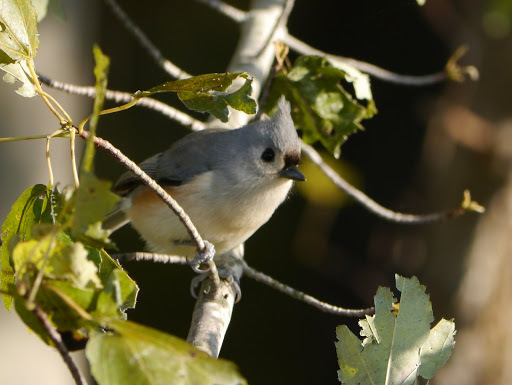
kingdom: Animalia
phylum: Chordata
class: Aves
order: Passeriformes
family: Paridae
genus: Baeolophus
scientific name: Baeolophus bicolor
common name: Tufted titmouse
